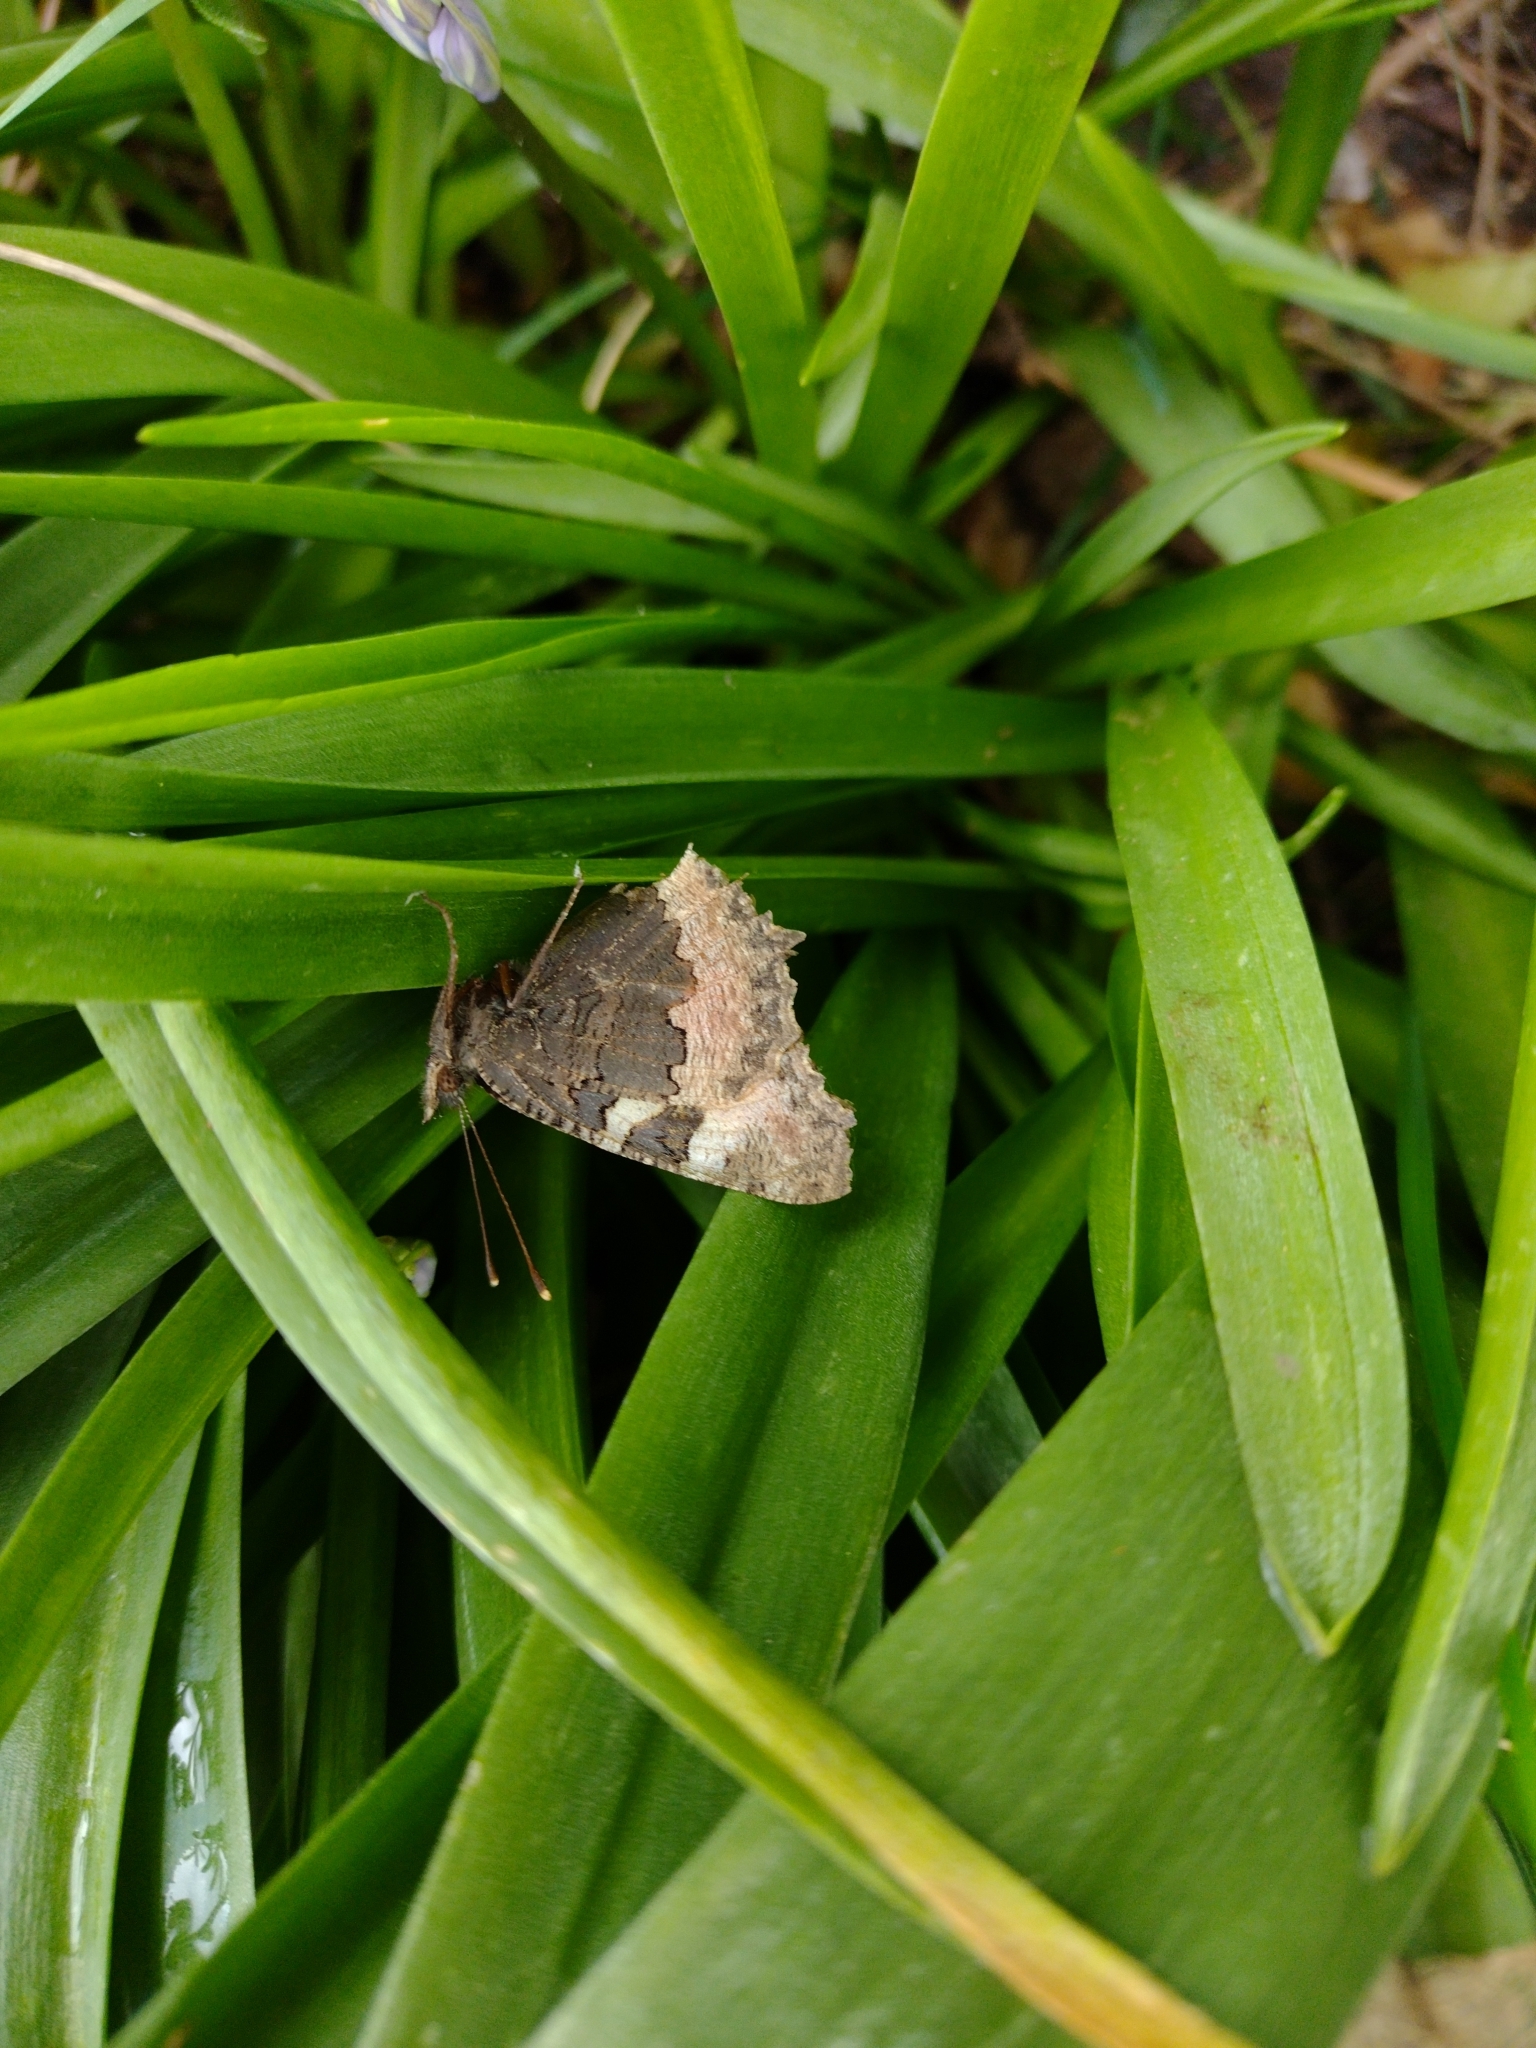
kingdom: Animalia
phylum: Arthropoda
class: Insecta
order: Lepidoptera
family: Nymphalidae
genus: Aglais
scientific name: Aglais urticae
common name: Small tortoiseshell
